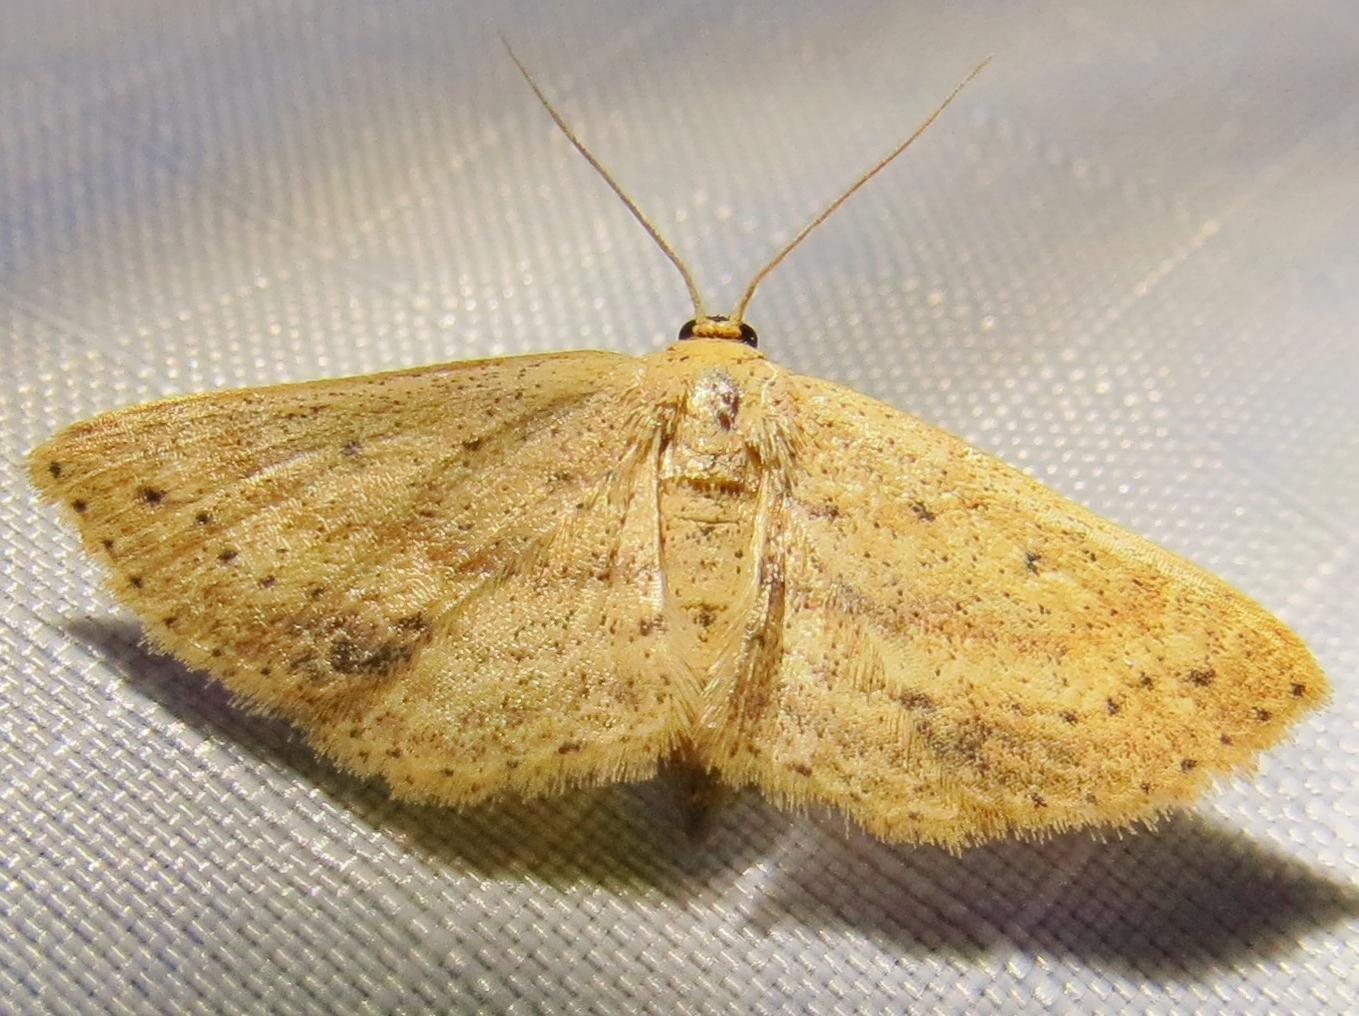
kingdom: Animalia
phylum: Arthropoda
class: Insecta
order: Lepidoptera
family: Geometridae
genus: Scopula
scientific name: Scopula aemulata
